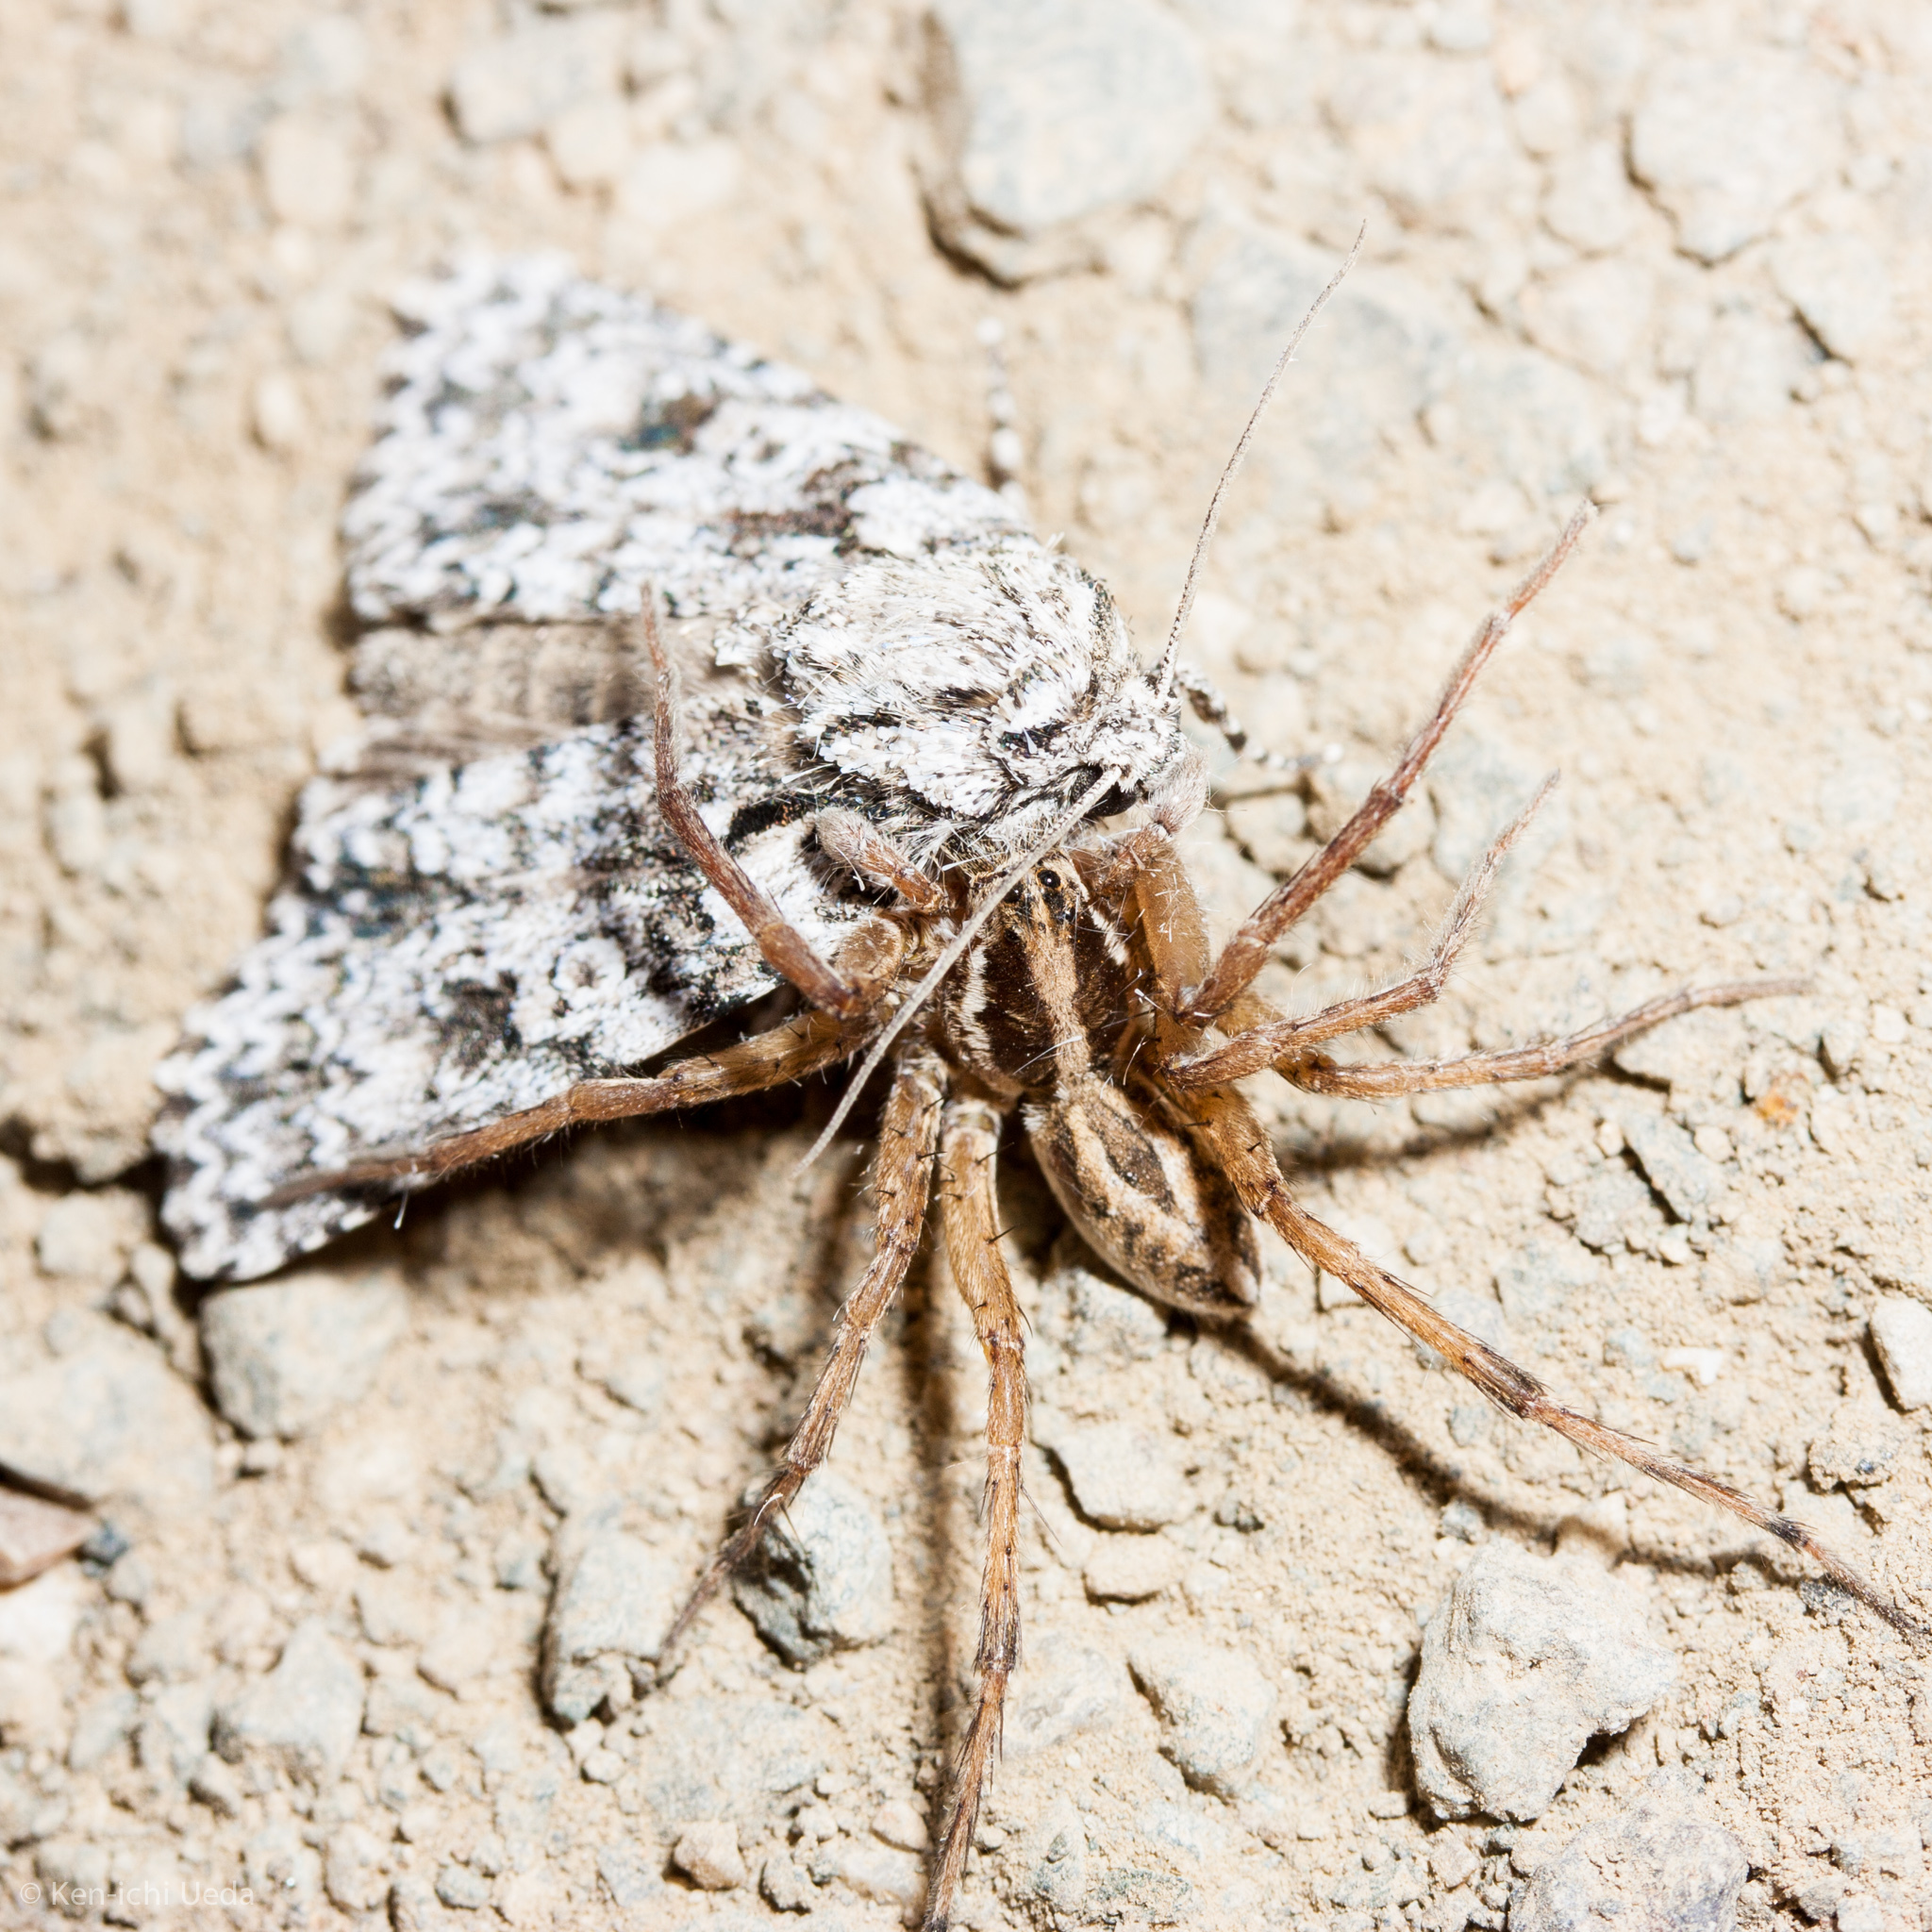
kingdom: Animalia
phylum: Arthropoda
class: Arachnida
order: Araneae
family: Lycosidae
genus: Schizocosa
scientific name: Schizocosa mccooki
